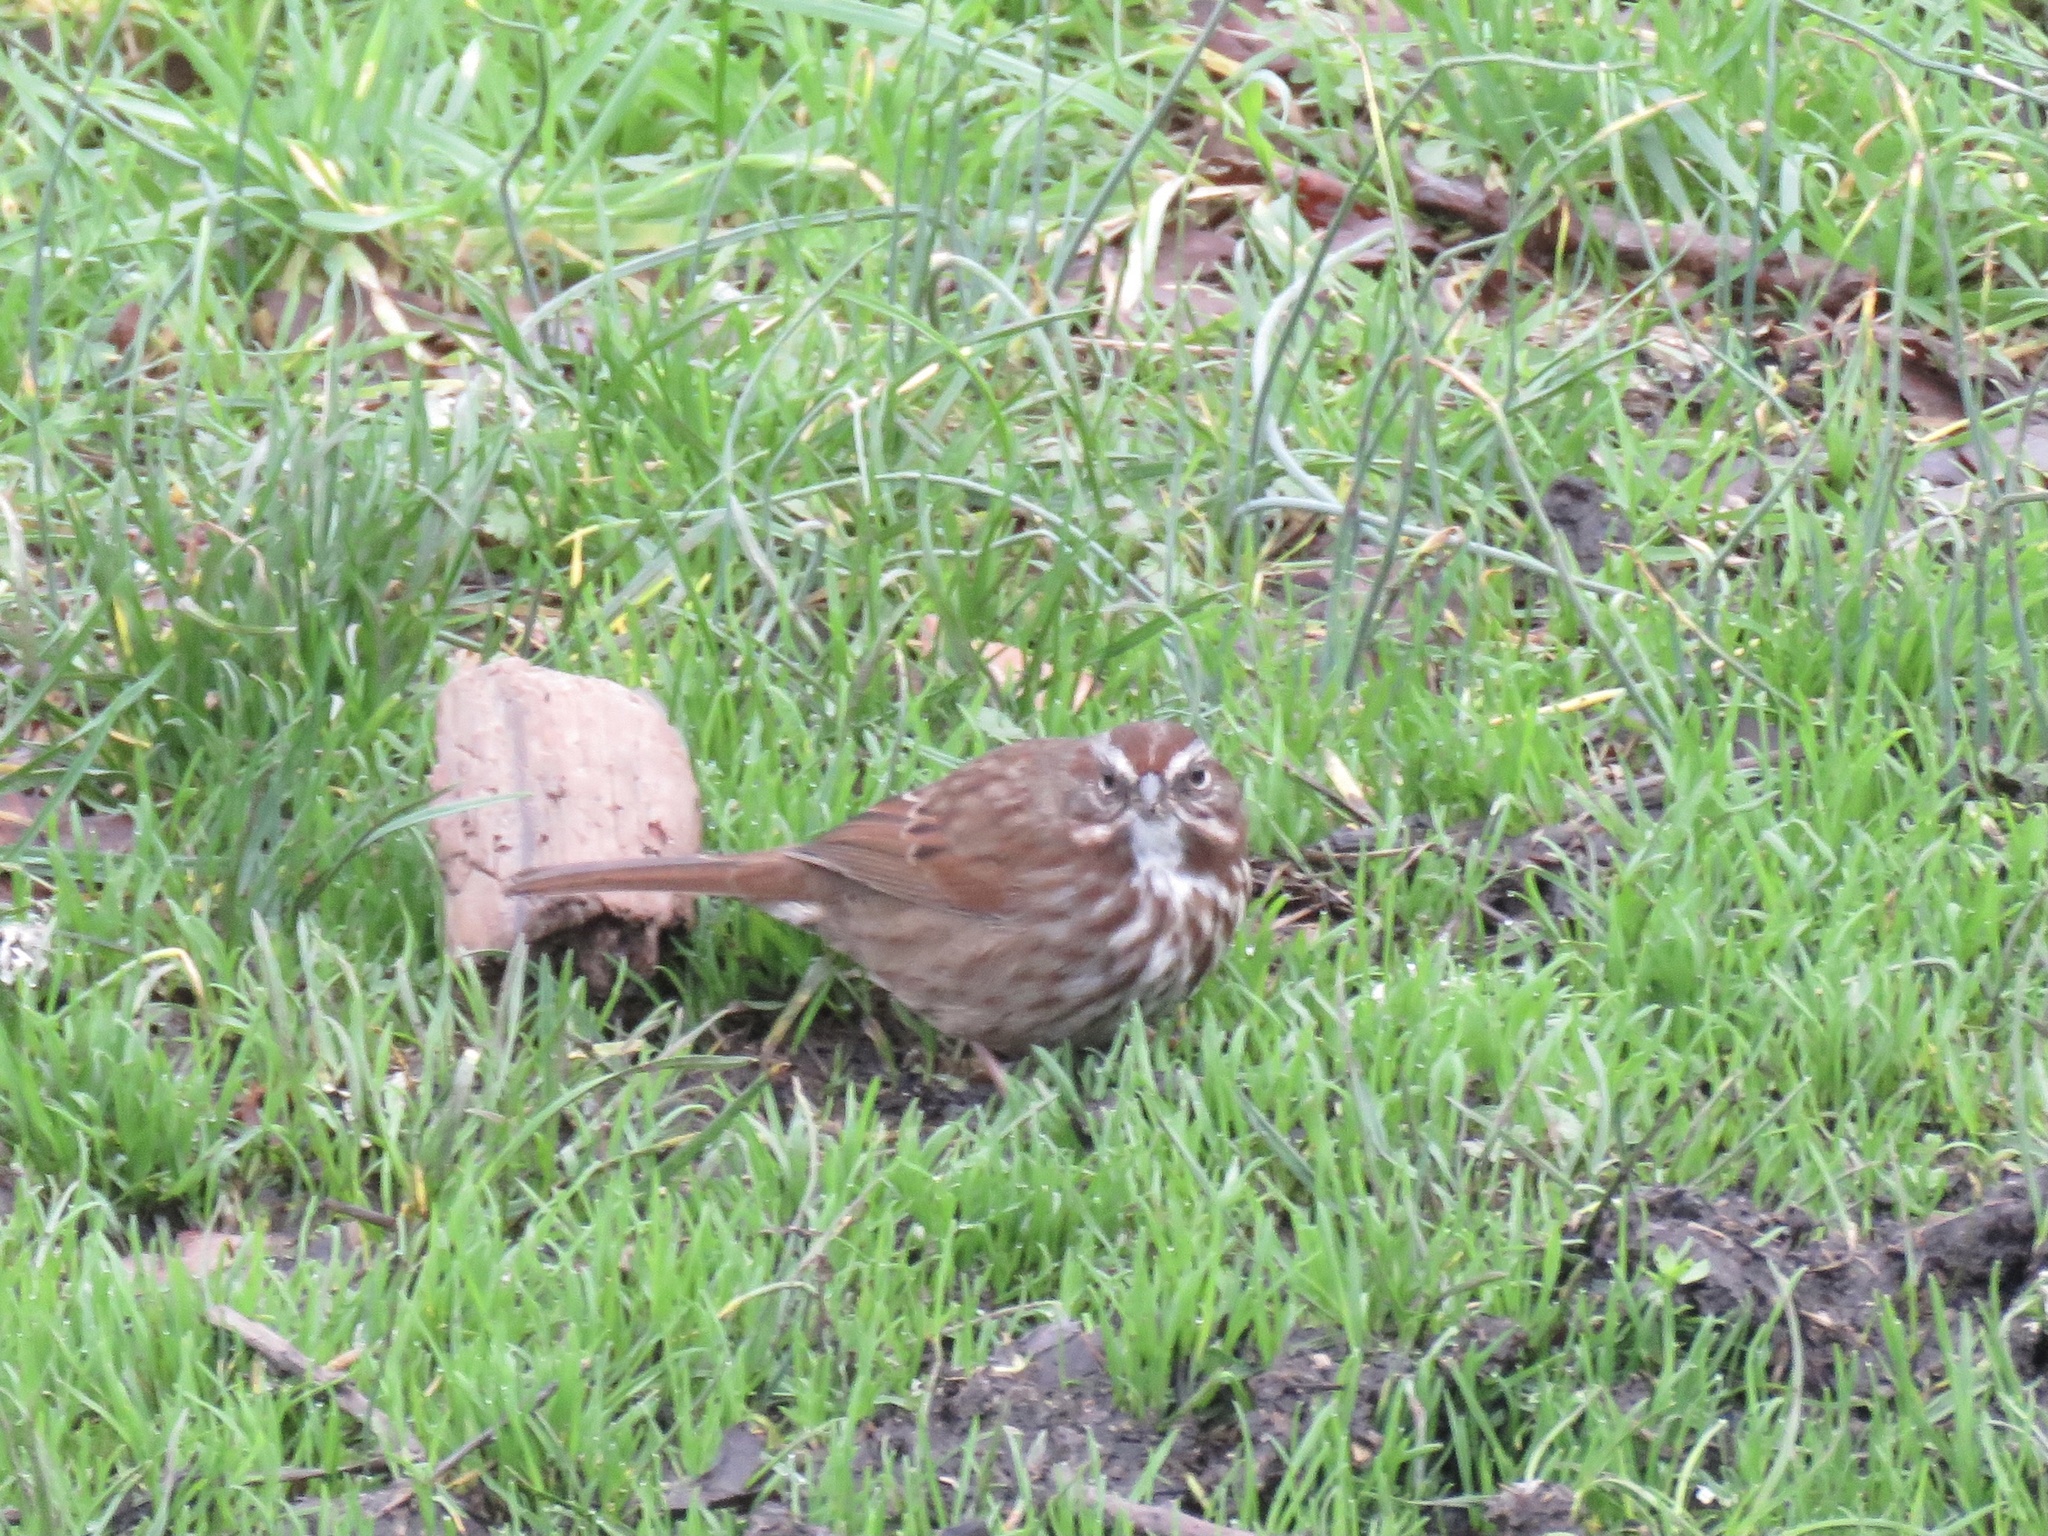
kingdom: Animalia
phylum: Chordata
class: Aves
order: Passeriformes
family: Passerellidae
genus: Melospiza
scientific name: Melospiza melodia
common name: Song sparrow
